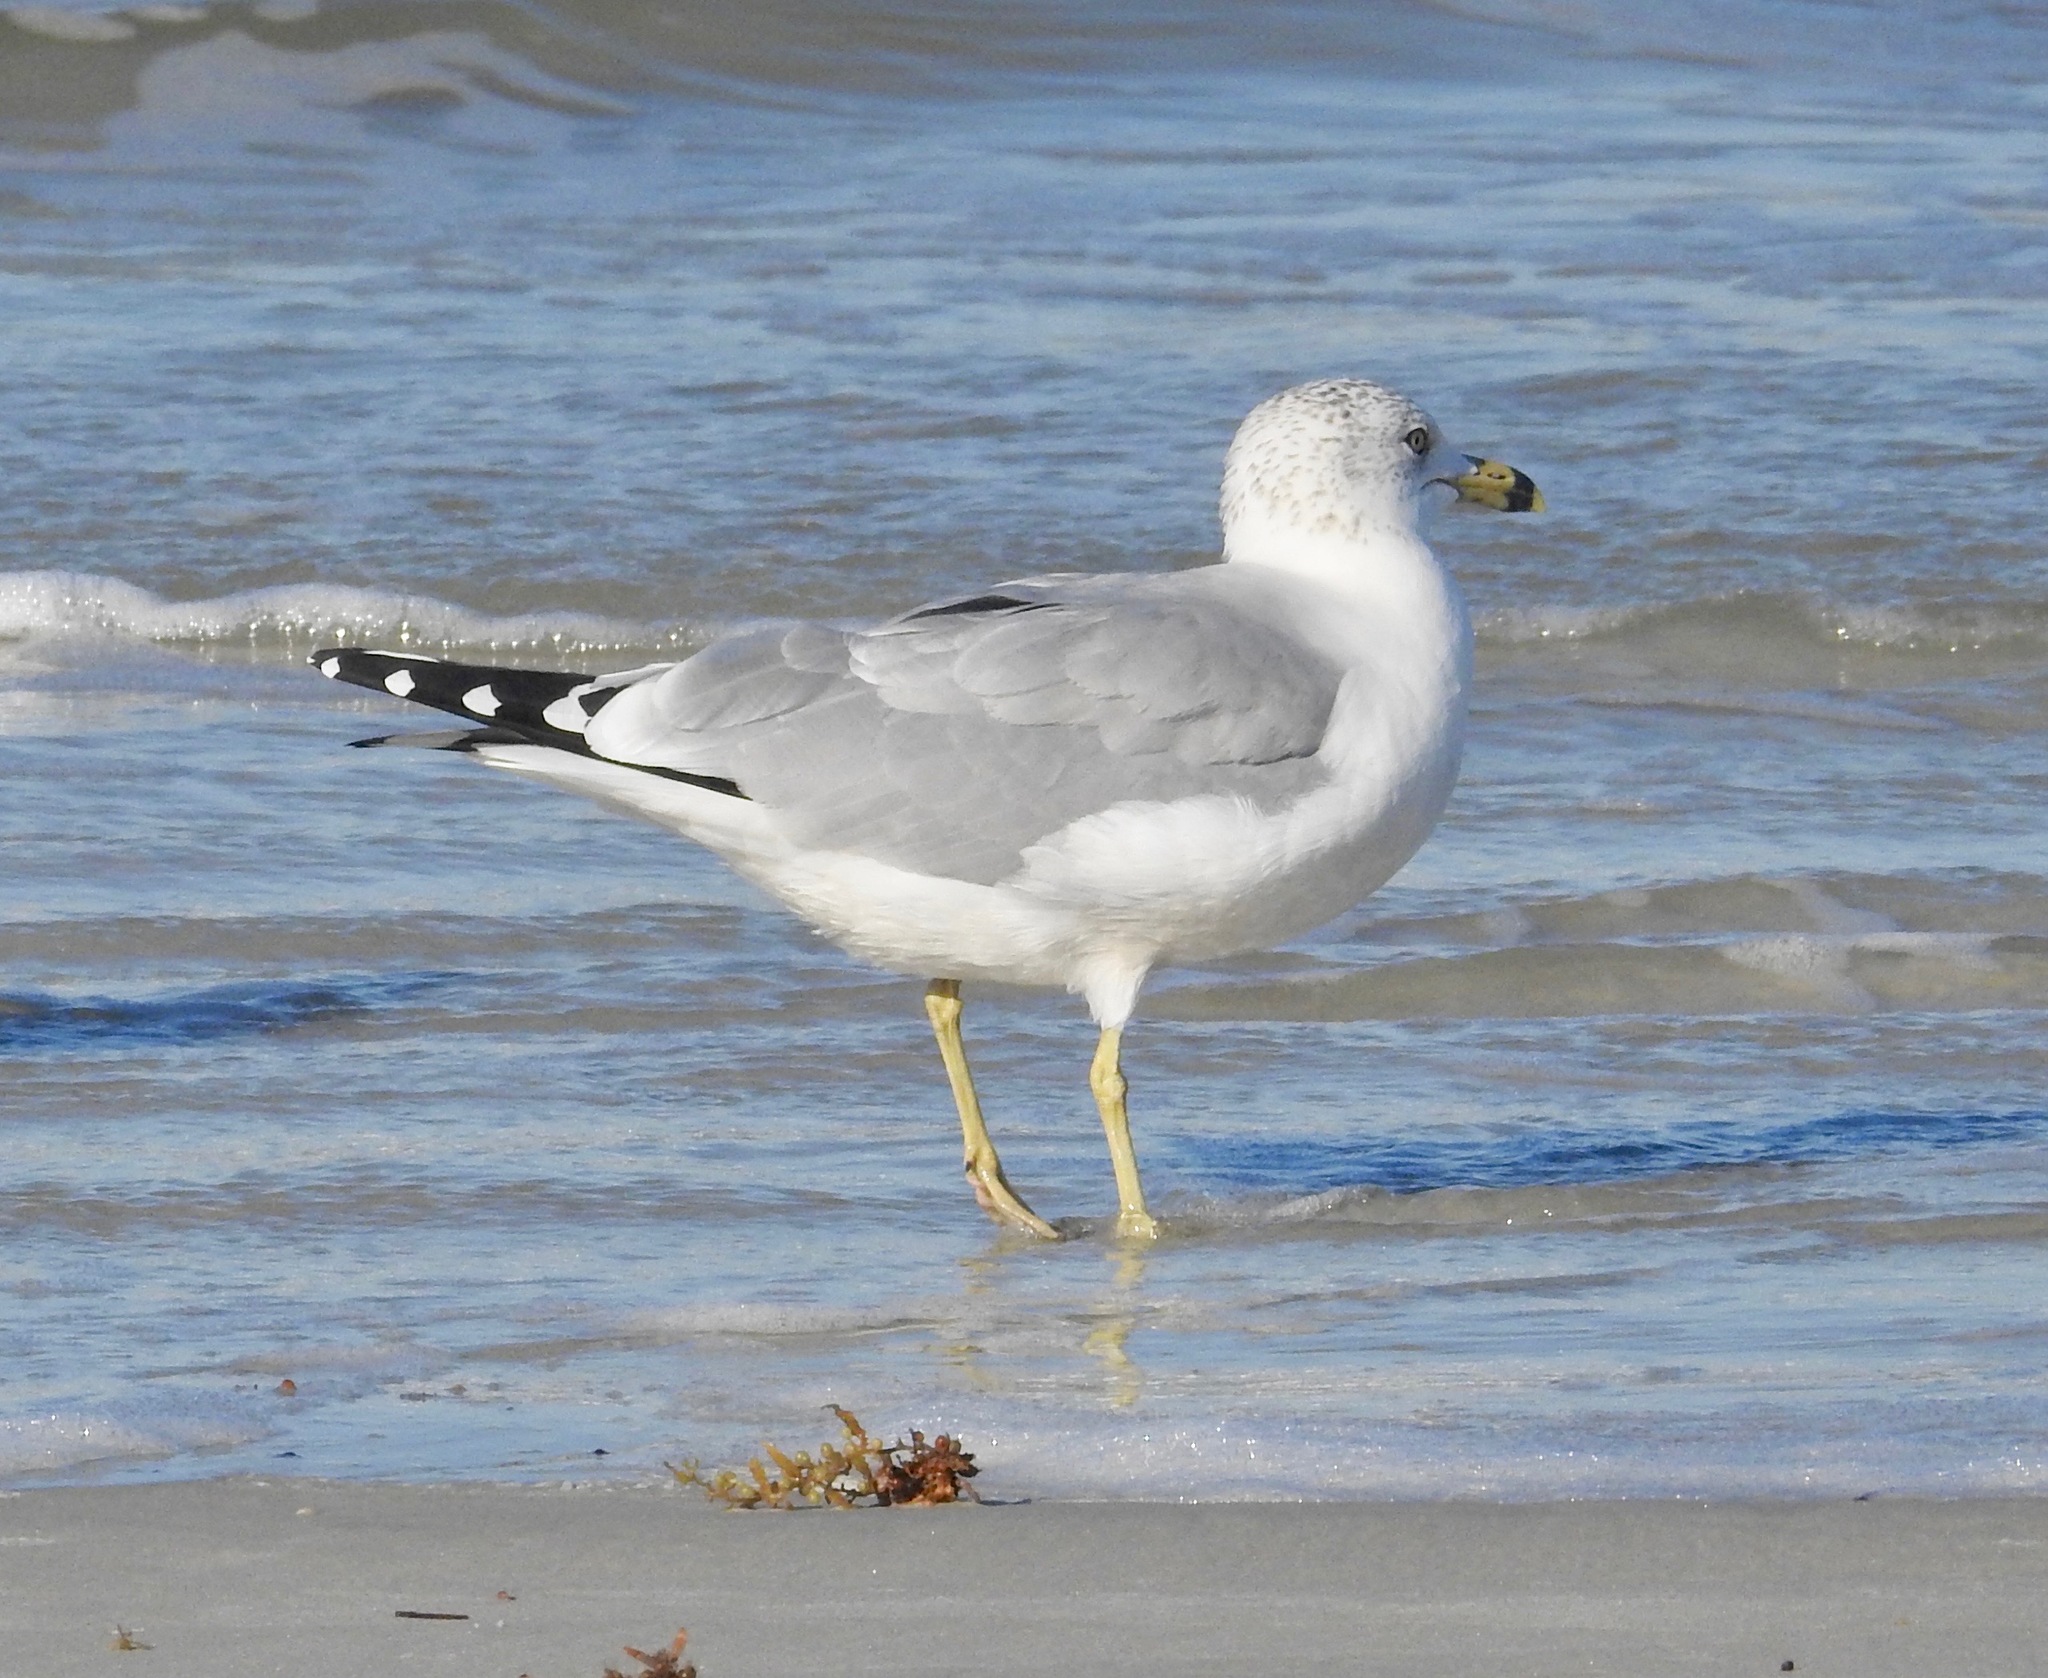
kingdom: Animalia
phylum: Chordata
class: Aves
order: Charadriiformes
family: Laridae
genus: Larus
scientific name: Larus delawarensis
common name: Ring-billed gull
